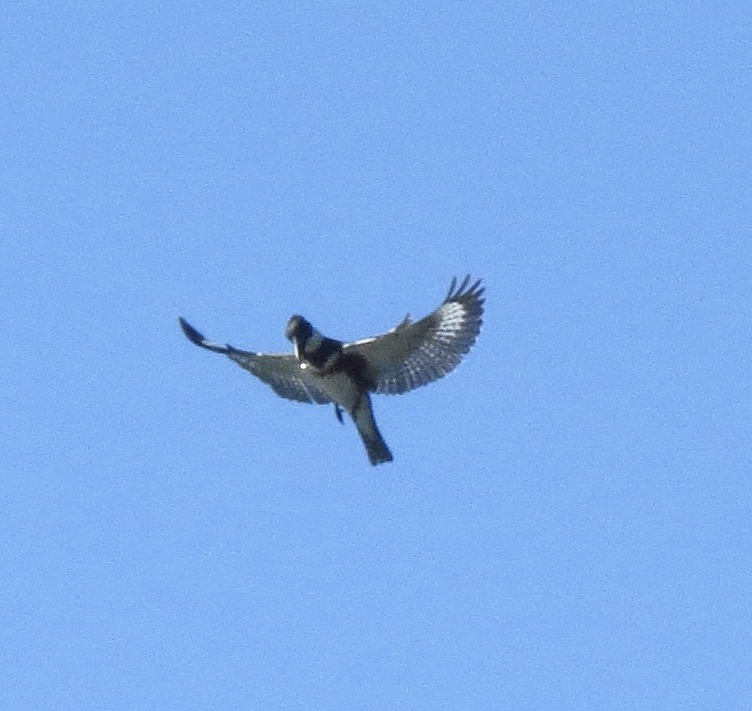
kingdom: Animalia
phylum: Chordata
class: Aves
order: Coraciiformes
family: Alcedinidae
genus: Megaceryle
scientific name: Megaceryle alcyon
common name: Belted kingfisher
